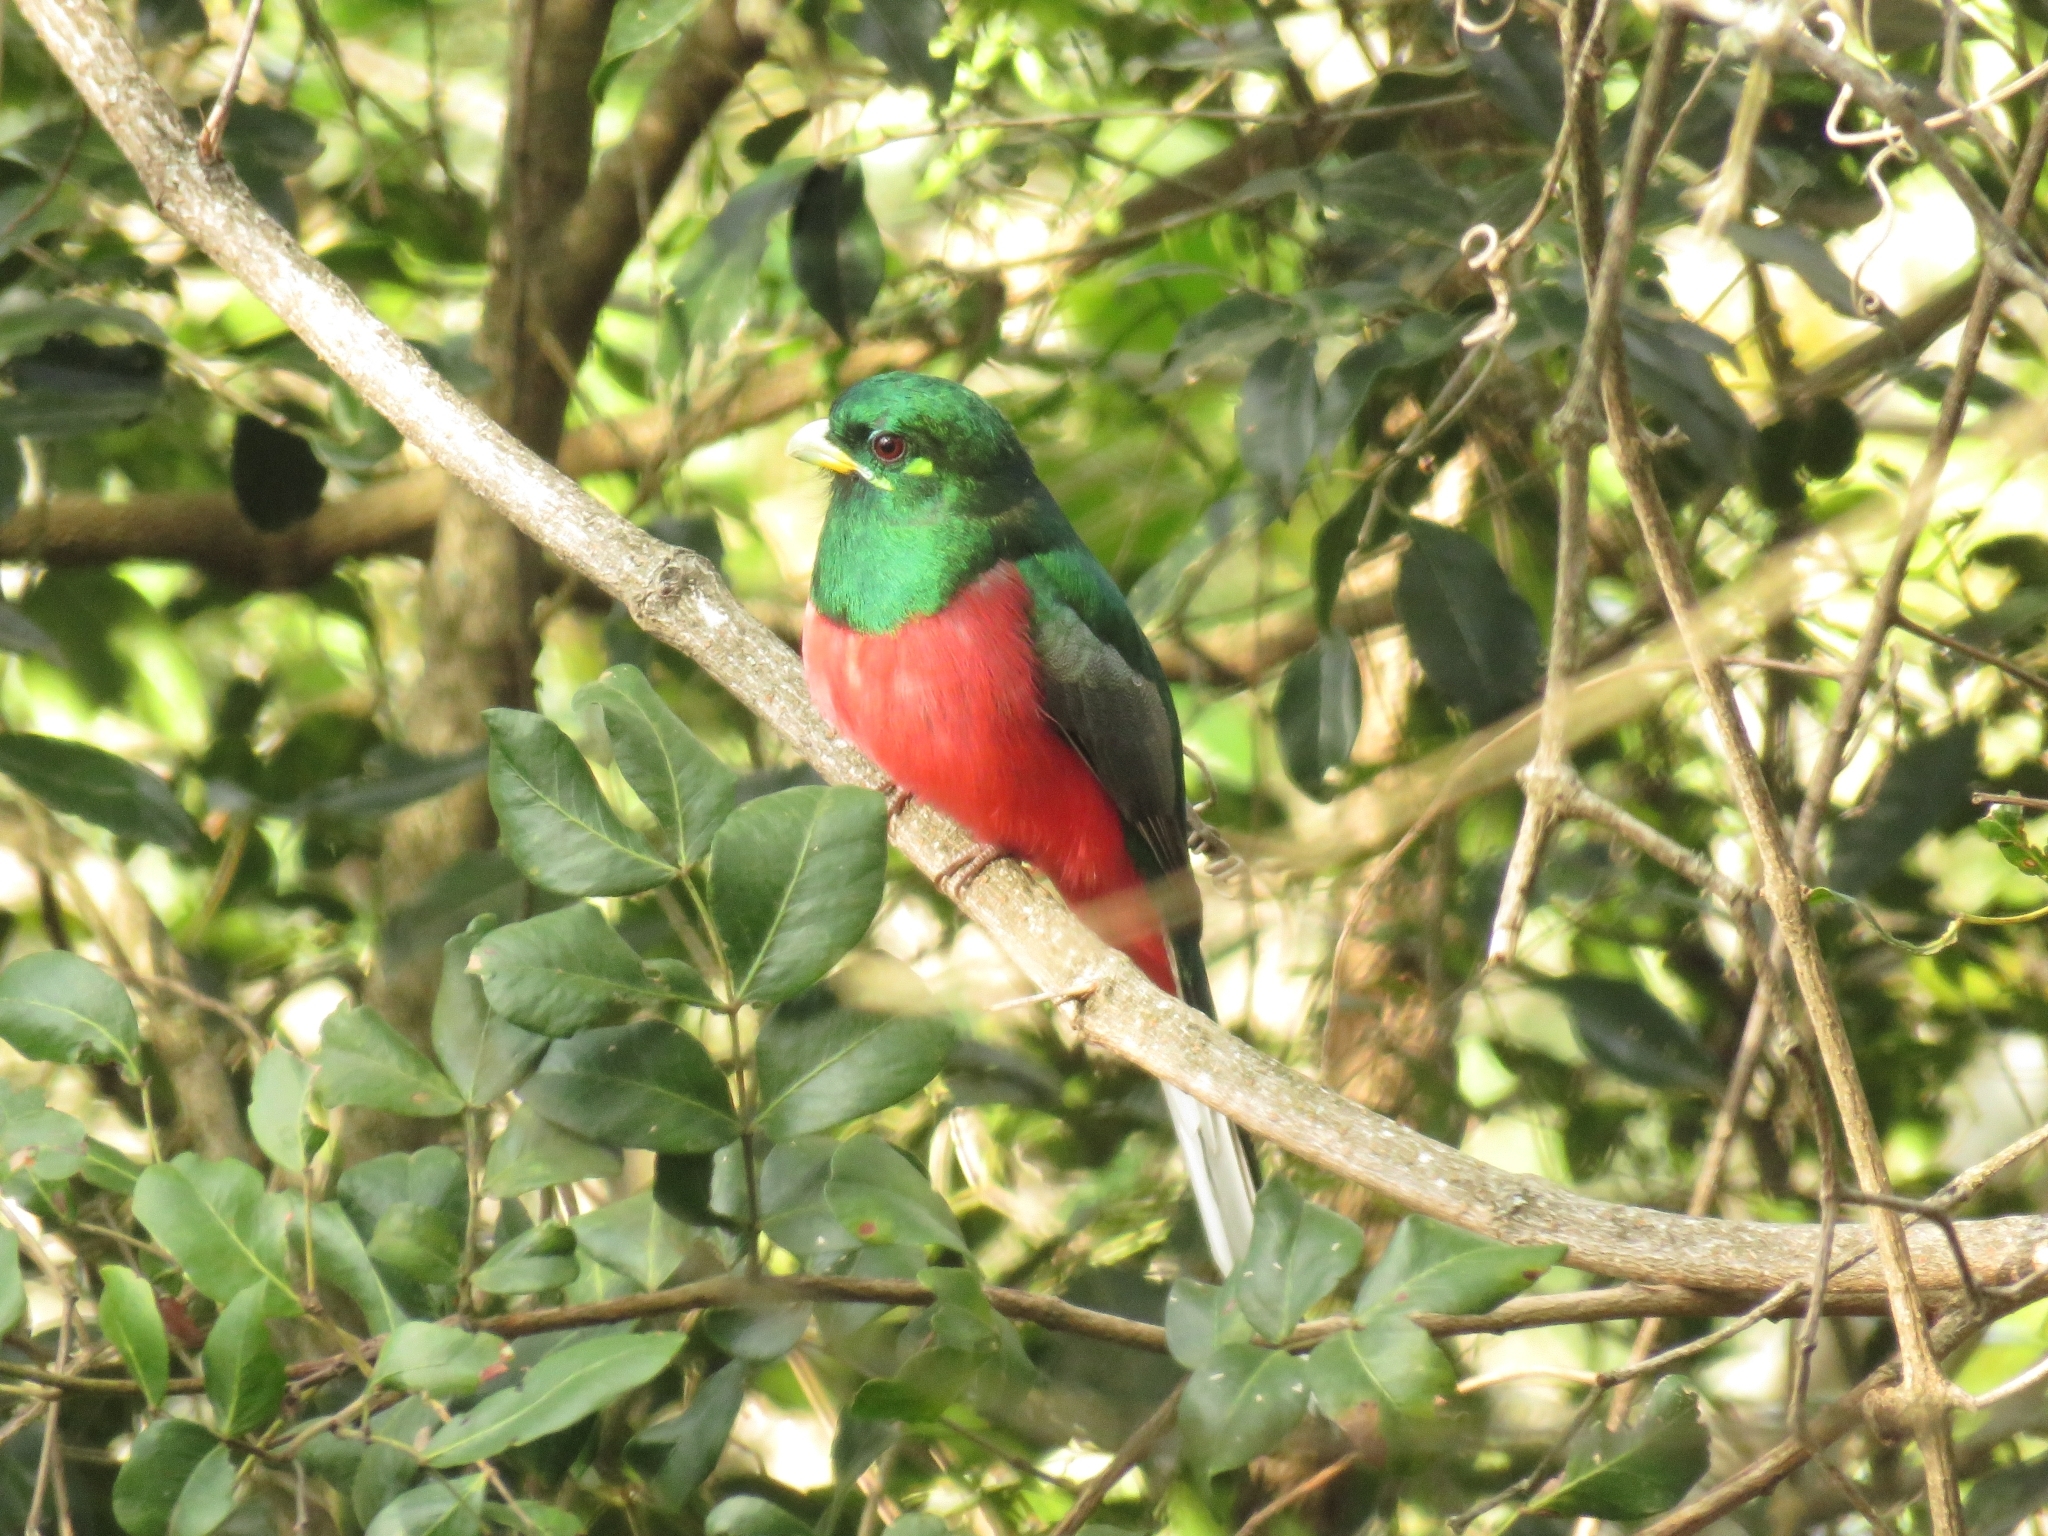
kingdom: Animalia
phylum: Chordata
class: Aves
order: Trogoniformes
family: Trogonidae
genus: Apaloderma
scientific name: Apaloderma narina
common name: Narina trogon
